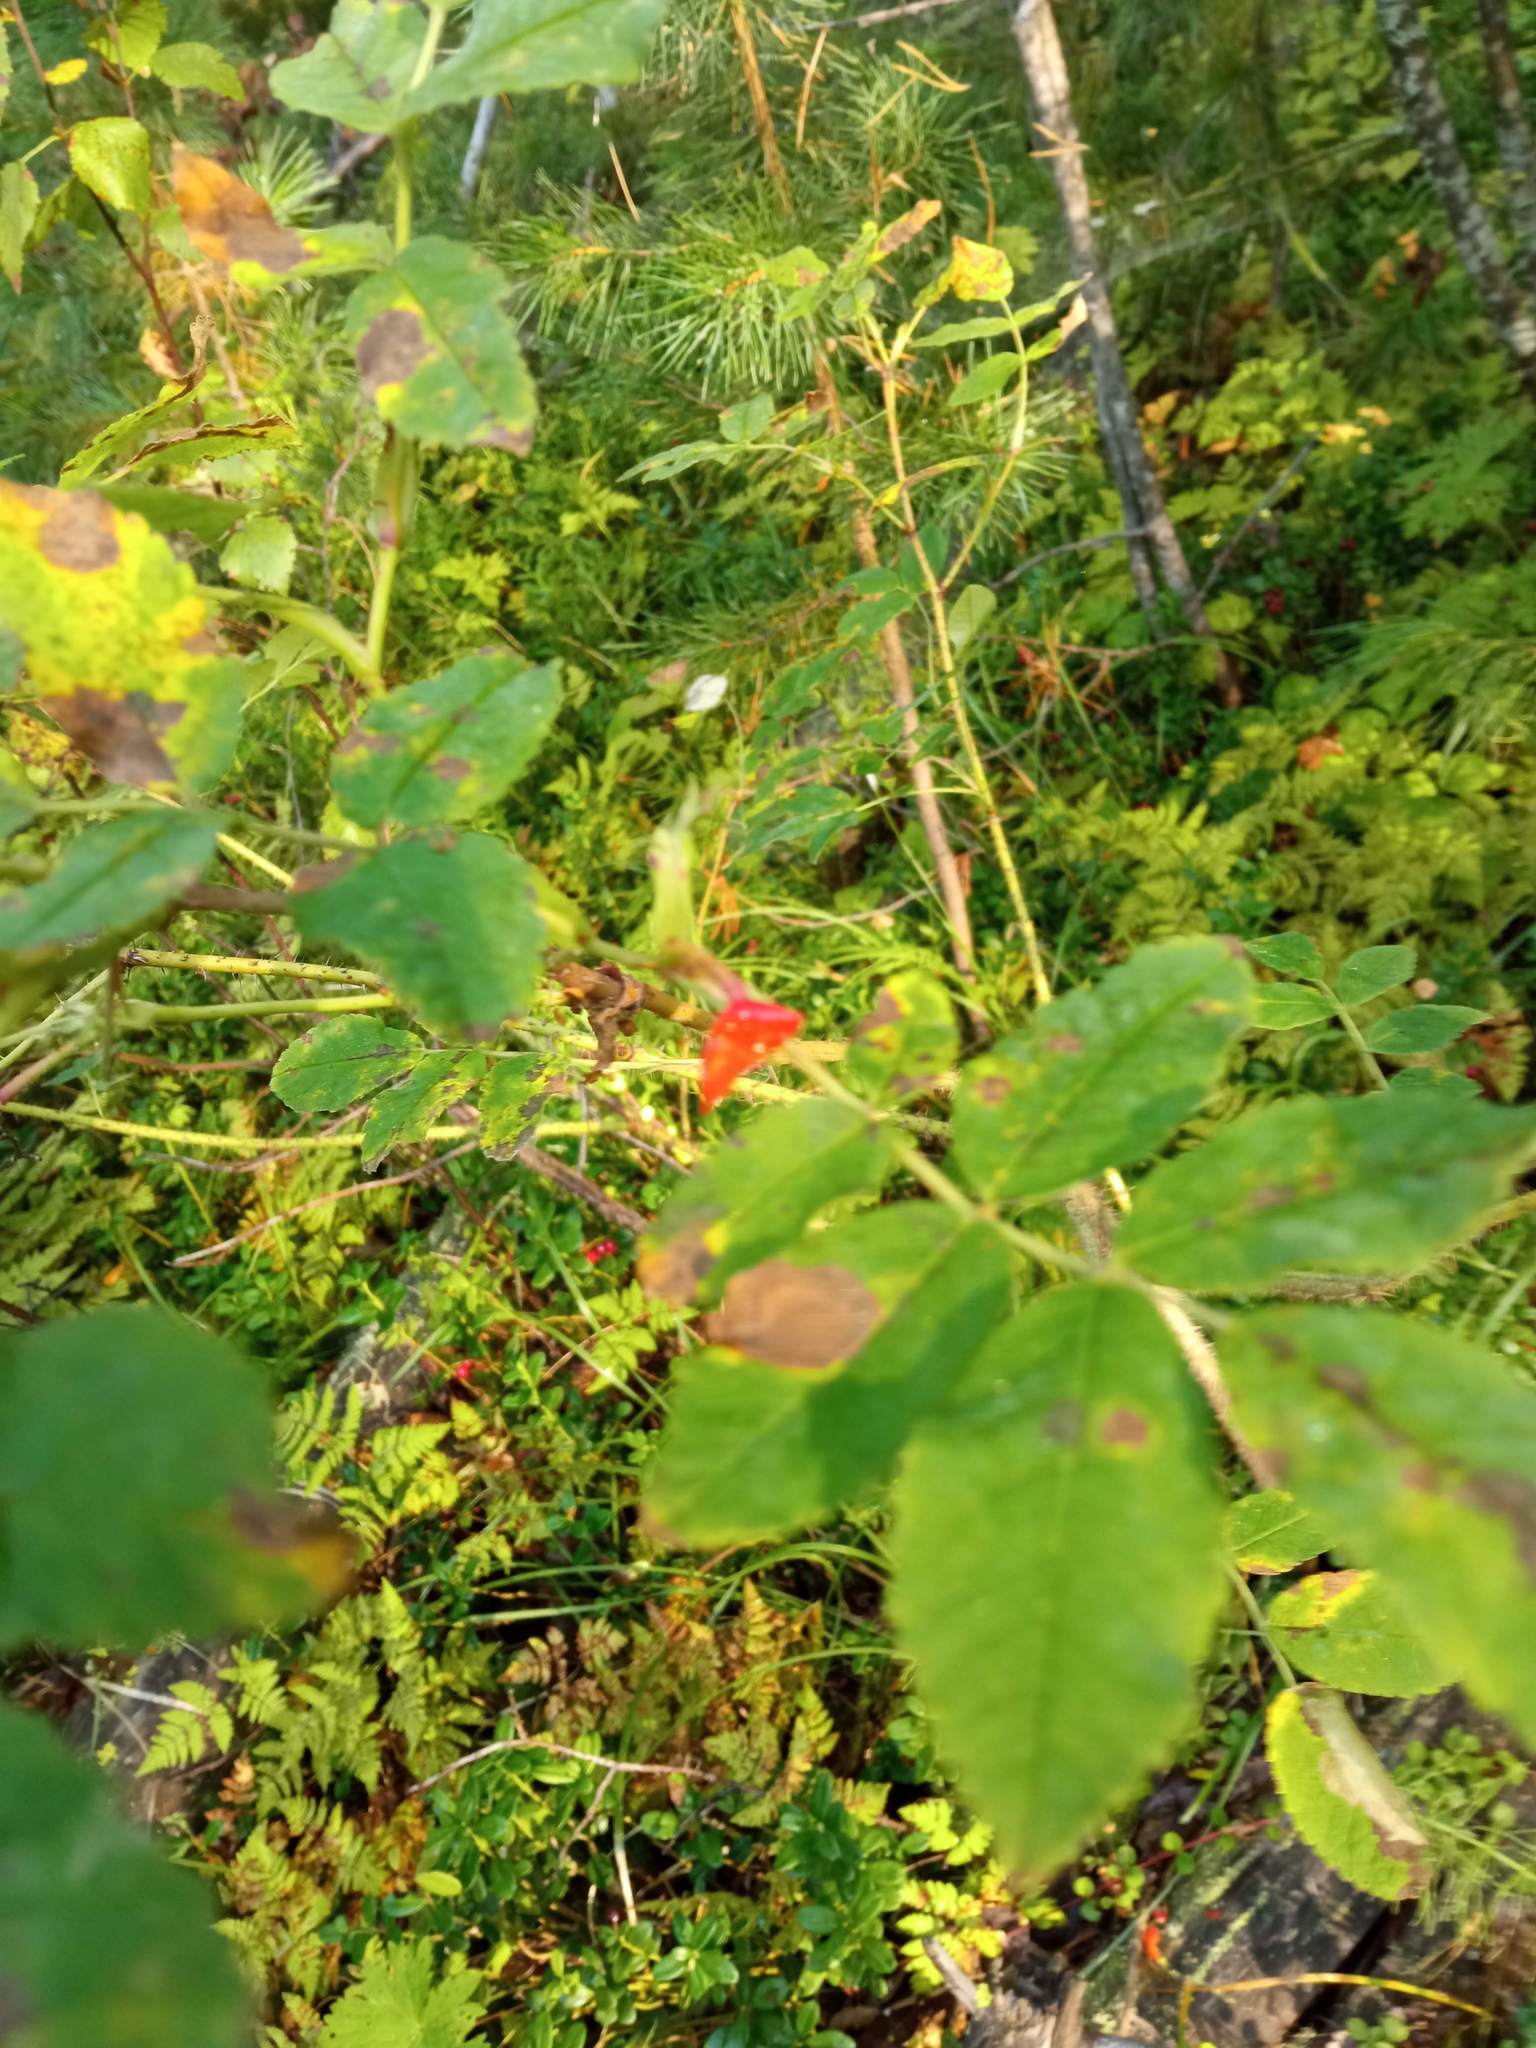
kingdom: Plantae
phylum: Tracheophyta
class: Magnoliopsida
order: Rosales
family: Rosaceae
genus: Rosa
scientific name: Rosa acicularis
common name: Prickly rose
